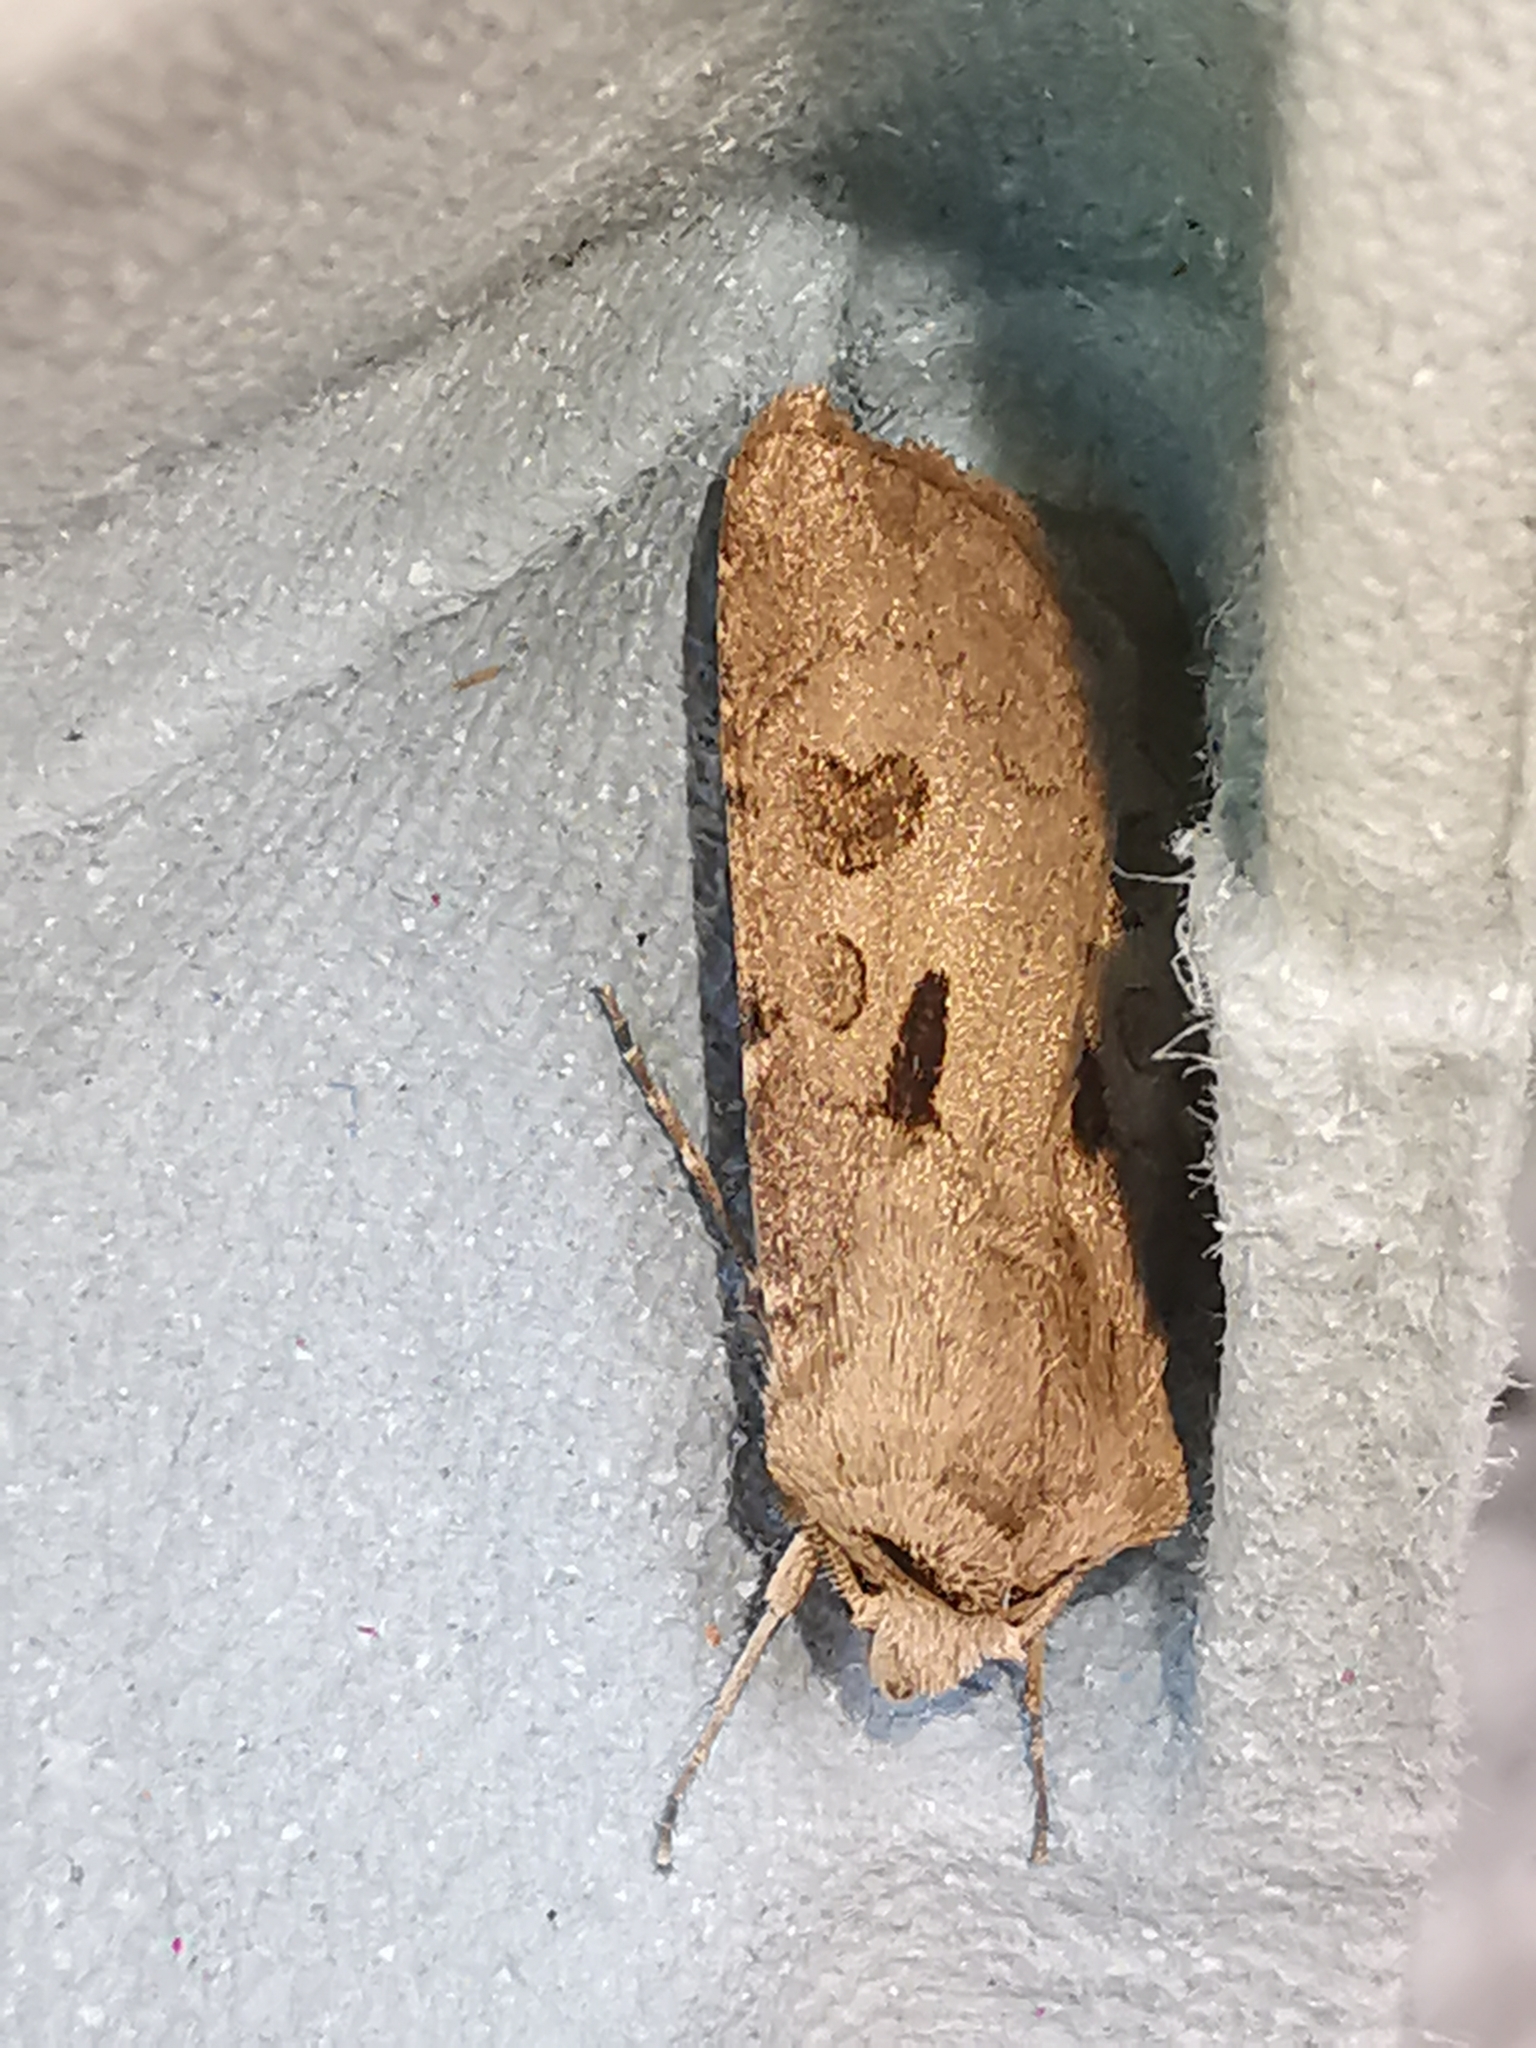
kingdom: Animalia
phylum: Arthropoda
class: Insecta
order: Lepidoptera
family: Noctuidae
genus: Agrotis
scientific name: Agrotis exclamationis
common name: Heart and dart
